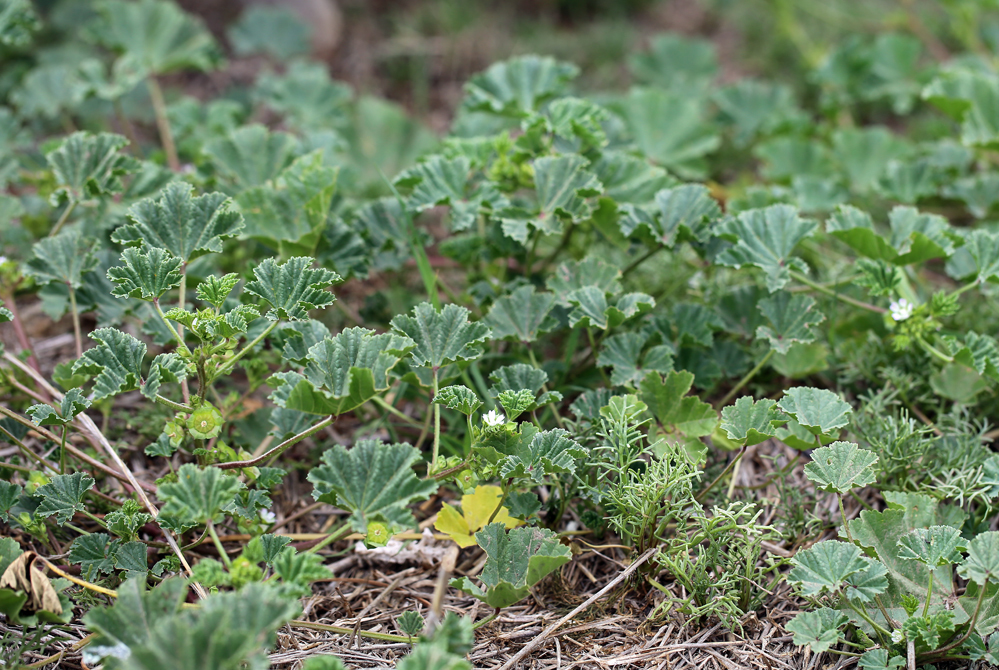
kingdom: Plantae
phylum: Tracheophyta
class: Magnoliopsida
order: Malvales
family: Malvaceae
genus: Malva
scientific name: Malva parviflora
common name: Least mallow
